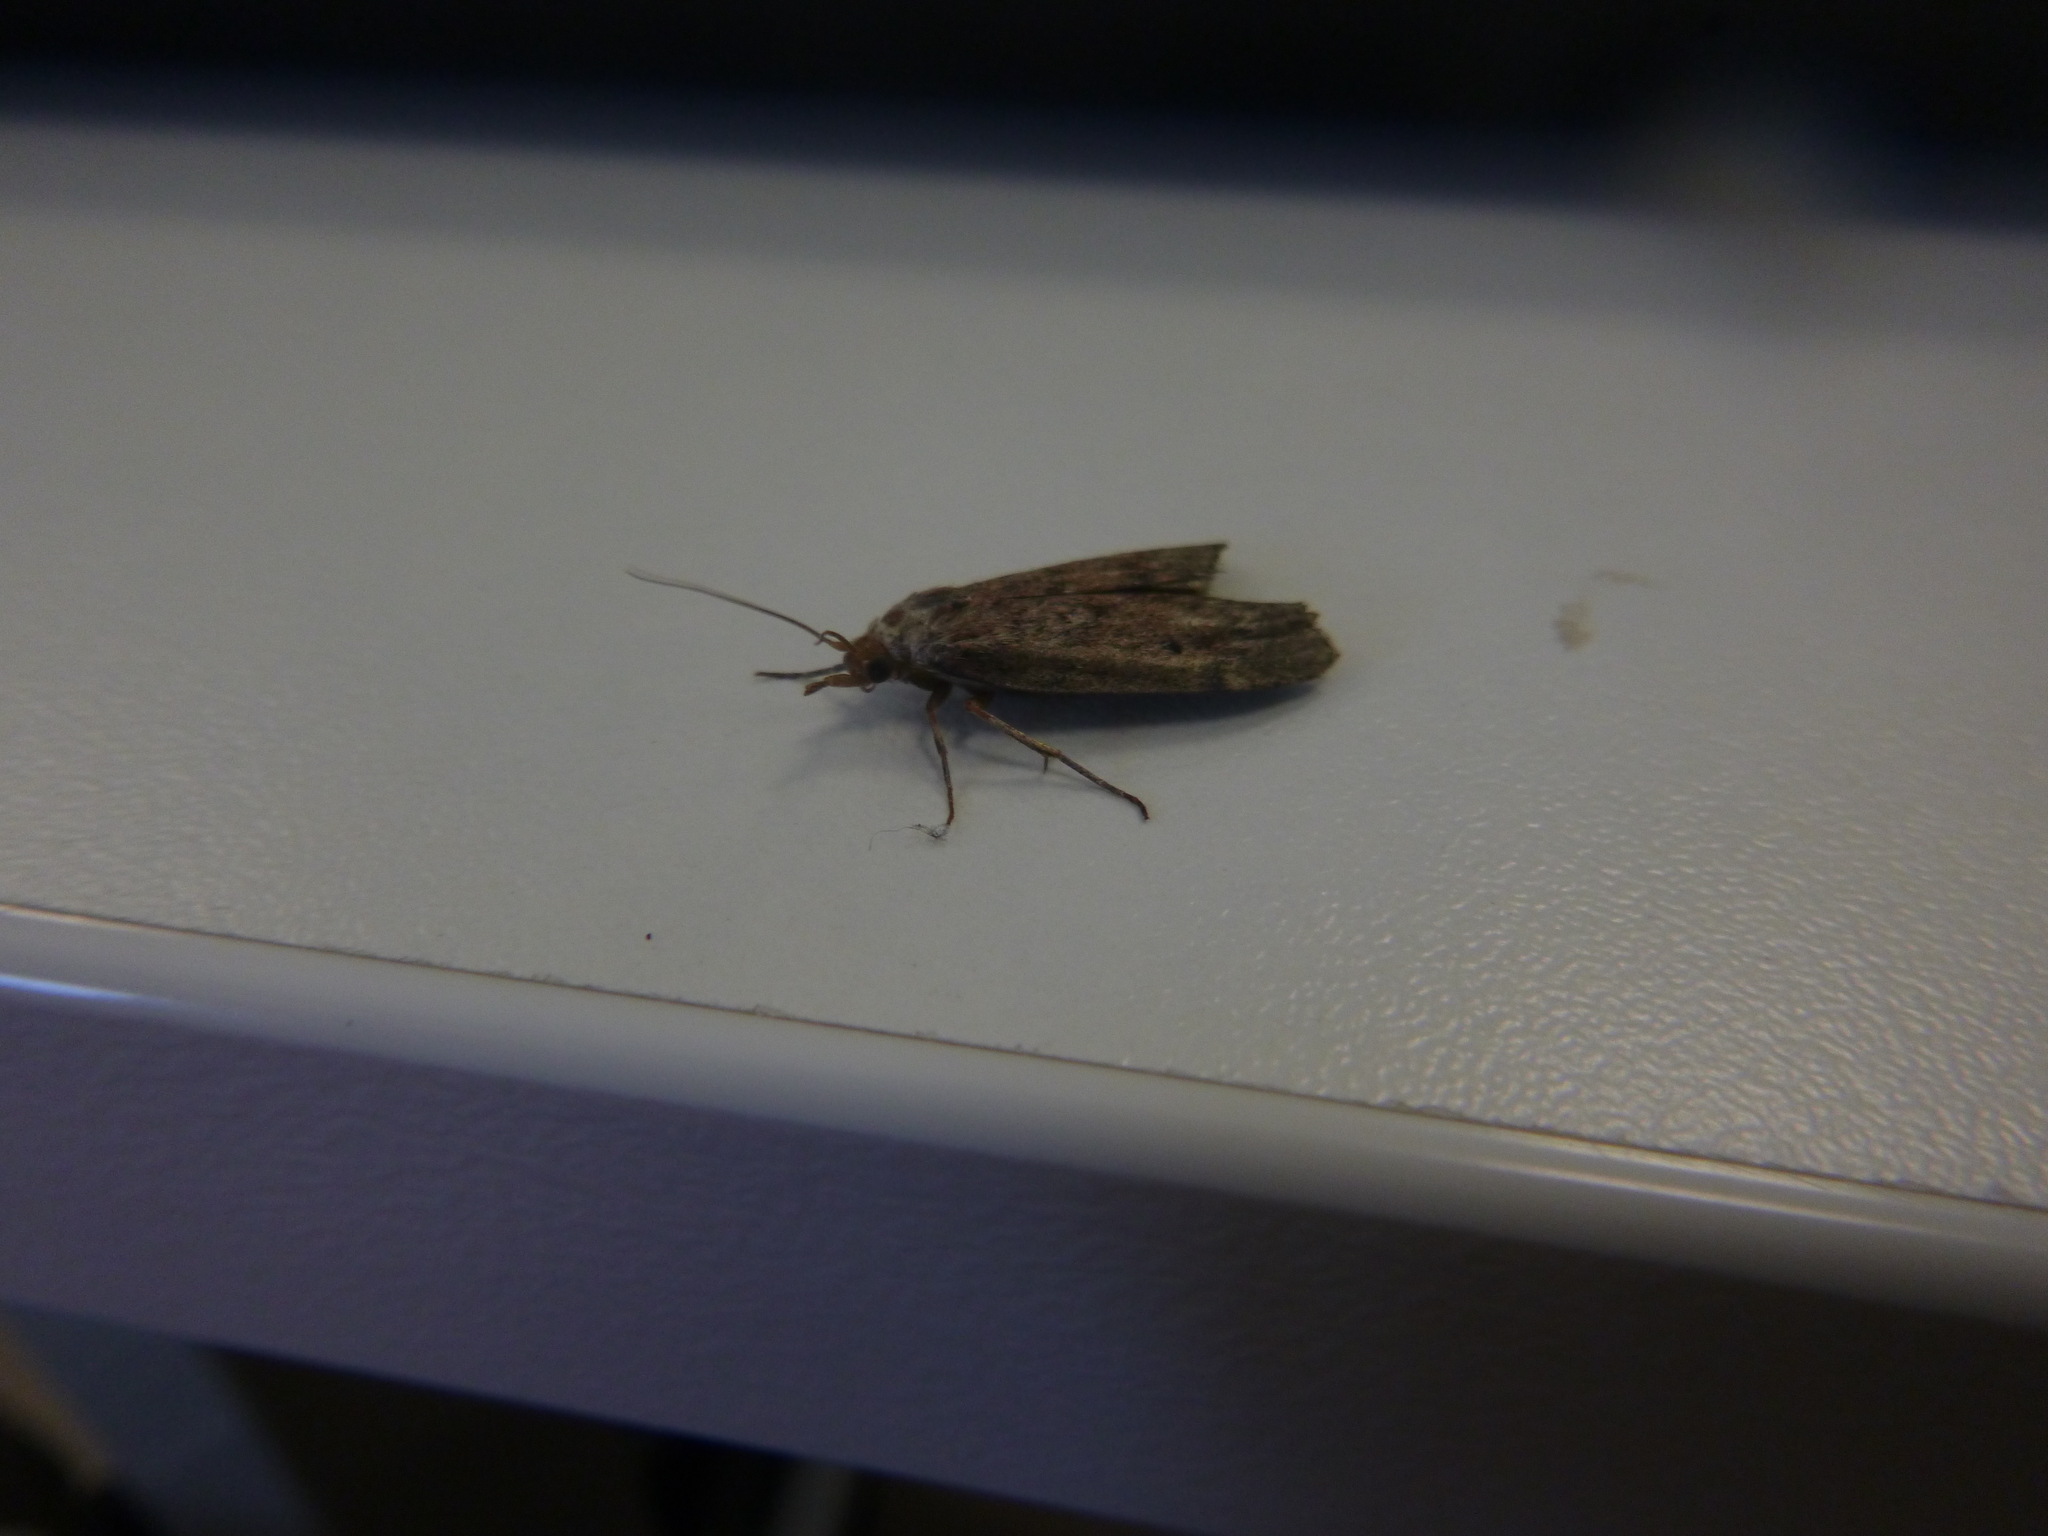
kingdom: Animalia
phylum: Arthropoda
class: Insecta
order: Lepidoptera
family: Pyralidae
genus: Aphomia
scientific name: Aphomia sociella
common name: Bee moth
